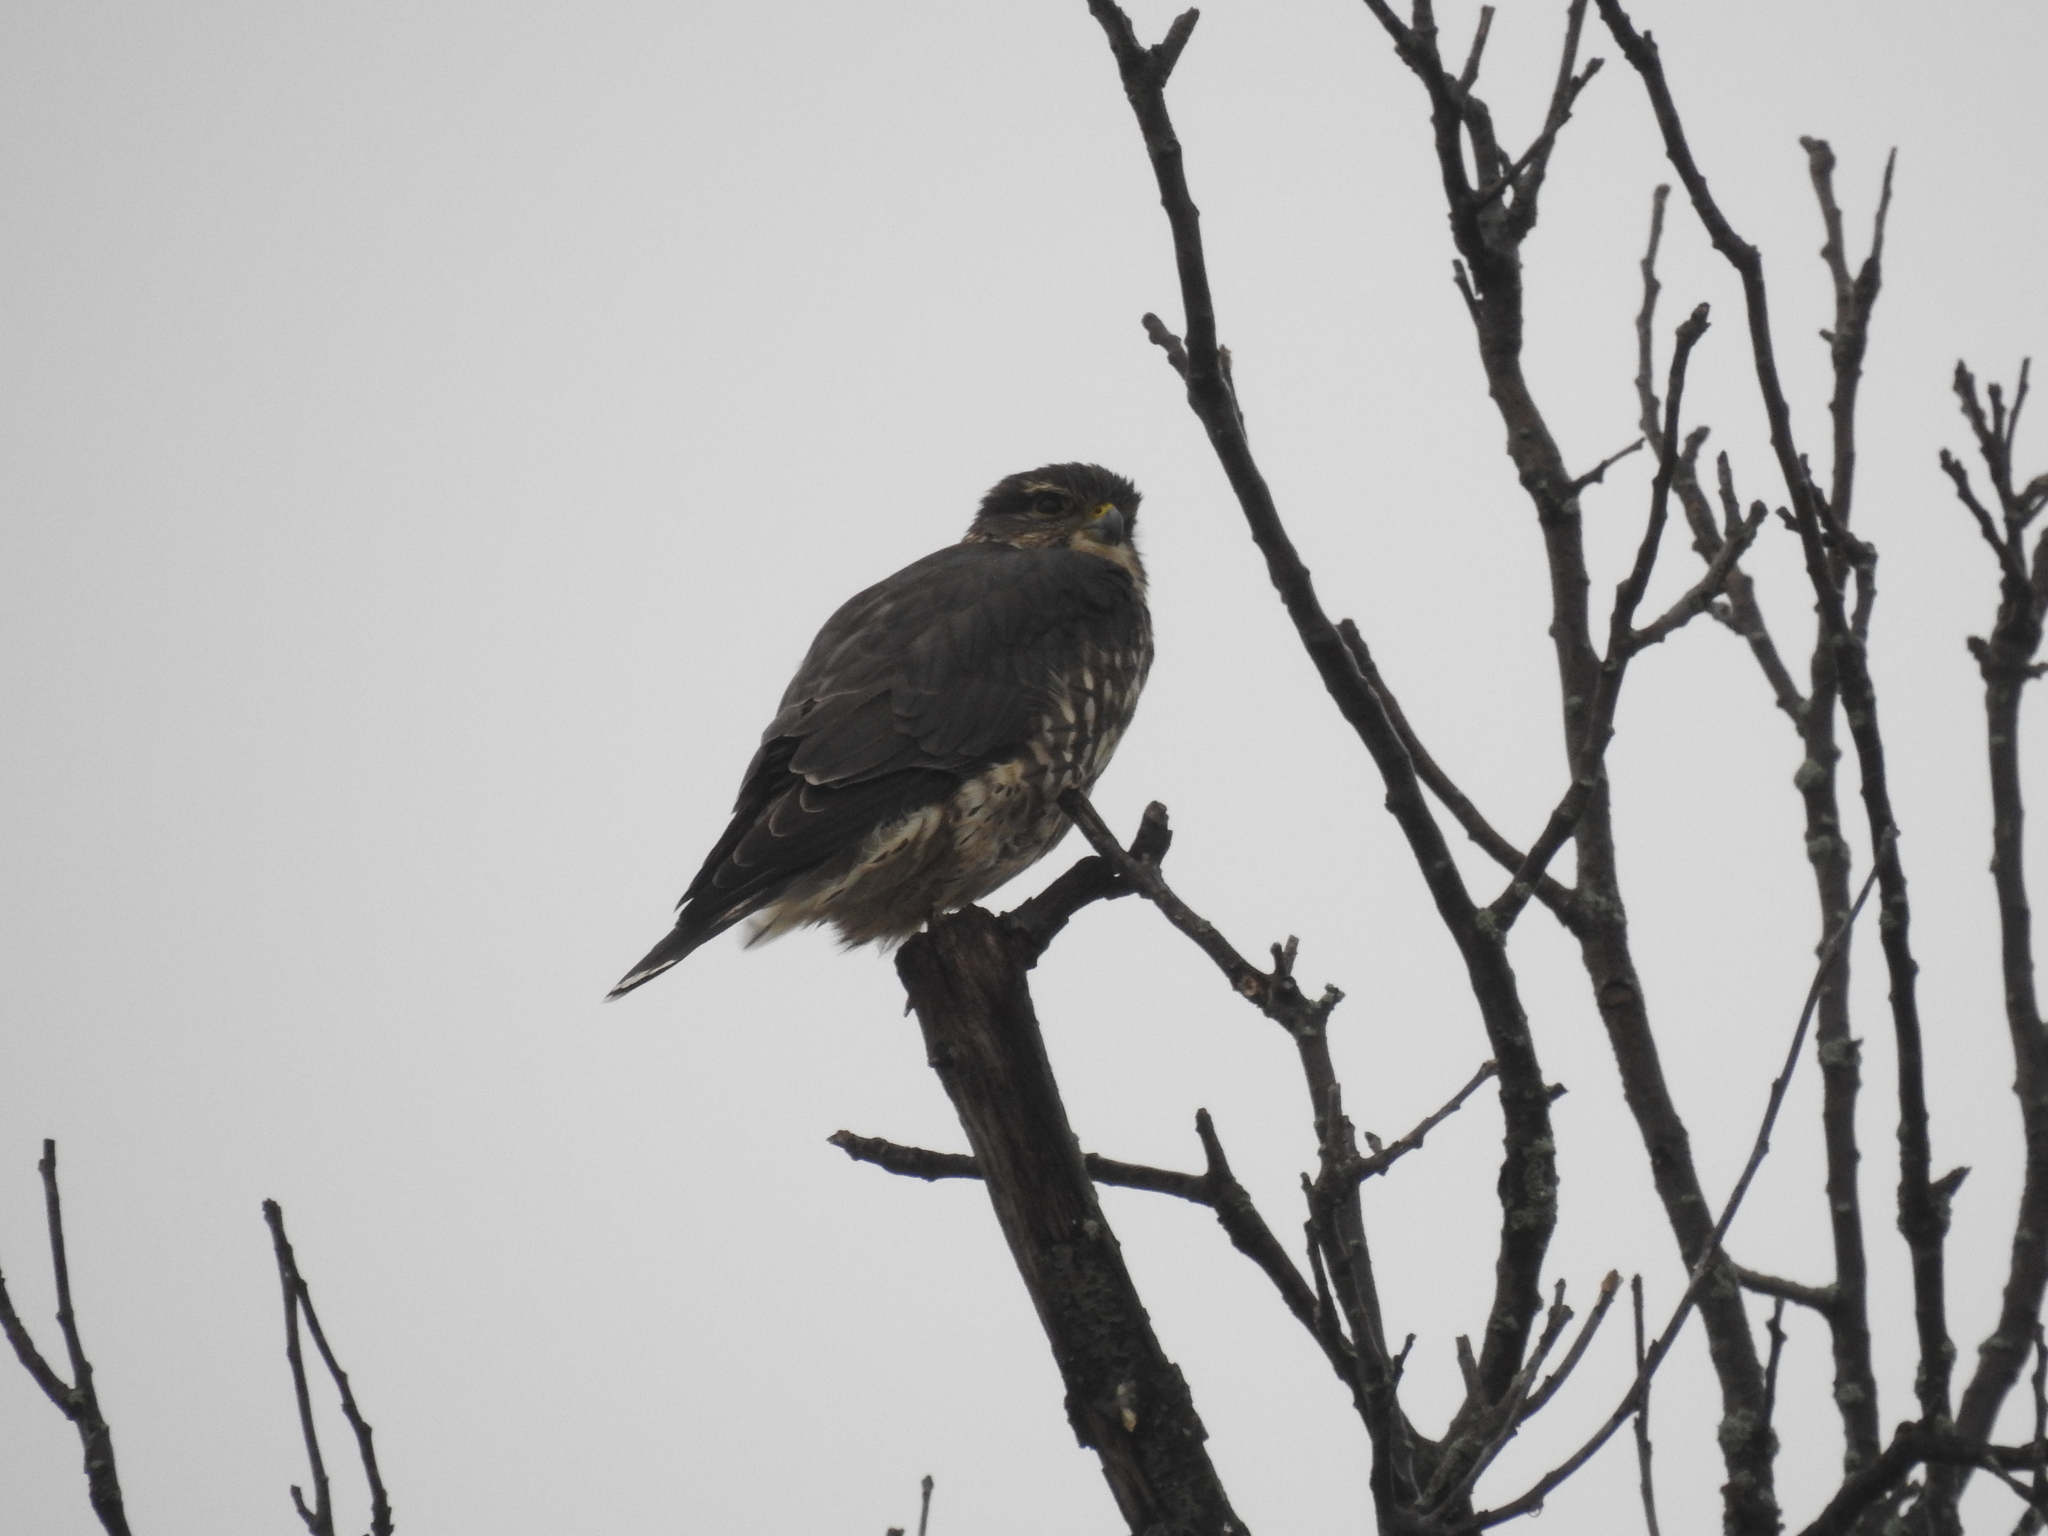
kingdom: Animalia
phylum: Chordata
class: Aves
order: Falconiformes
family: Falconidae
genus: Falco
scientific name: Falco columbarius
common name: Merlin
